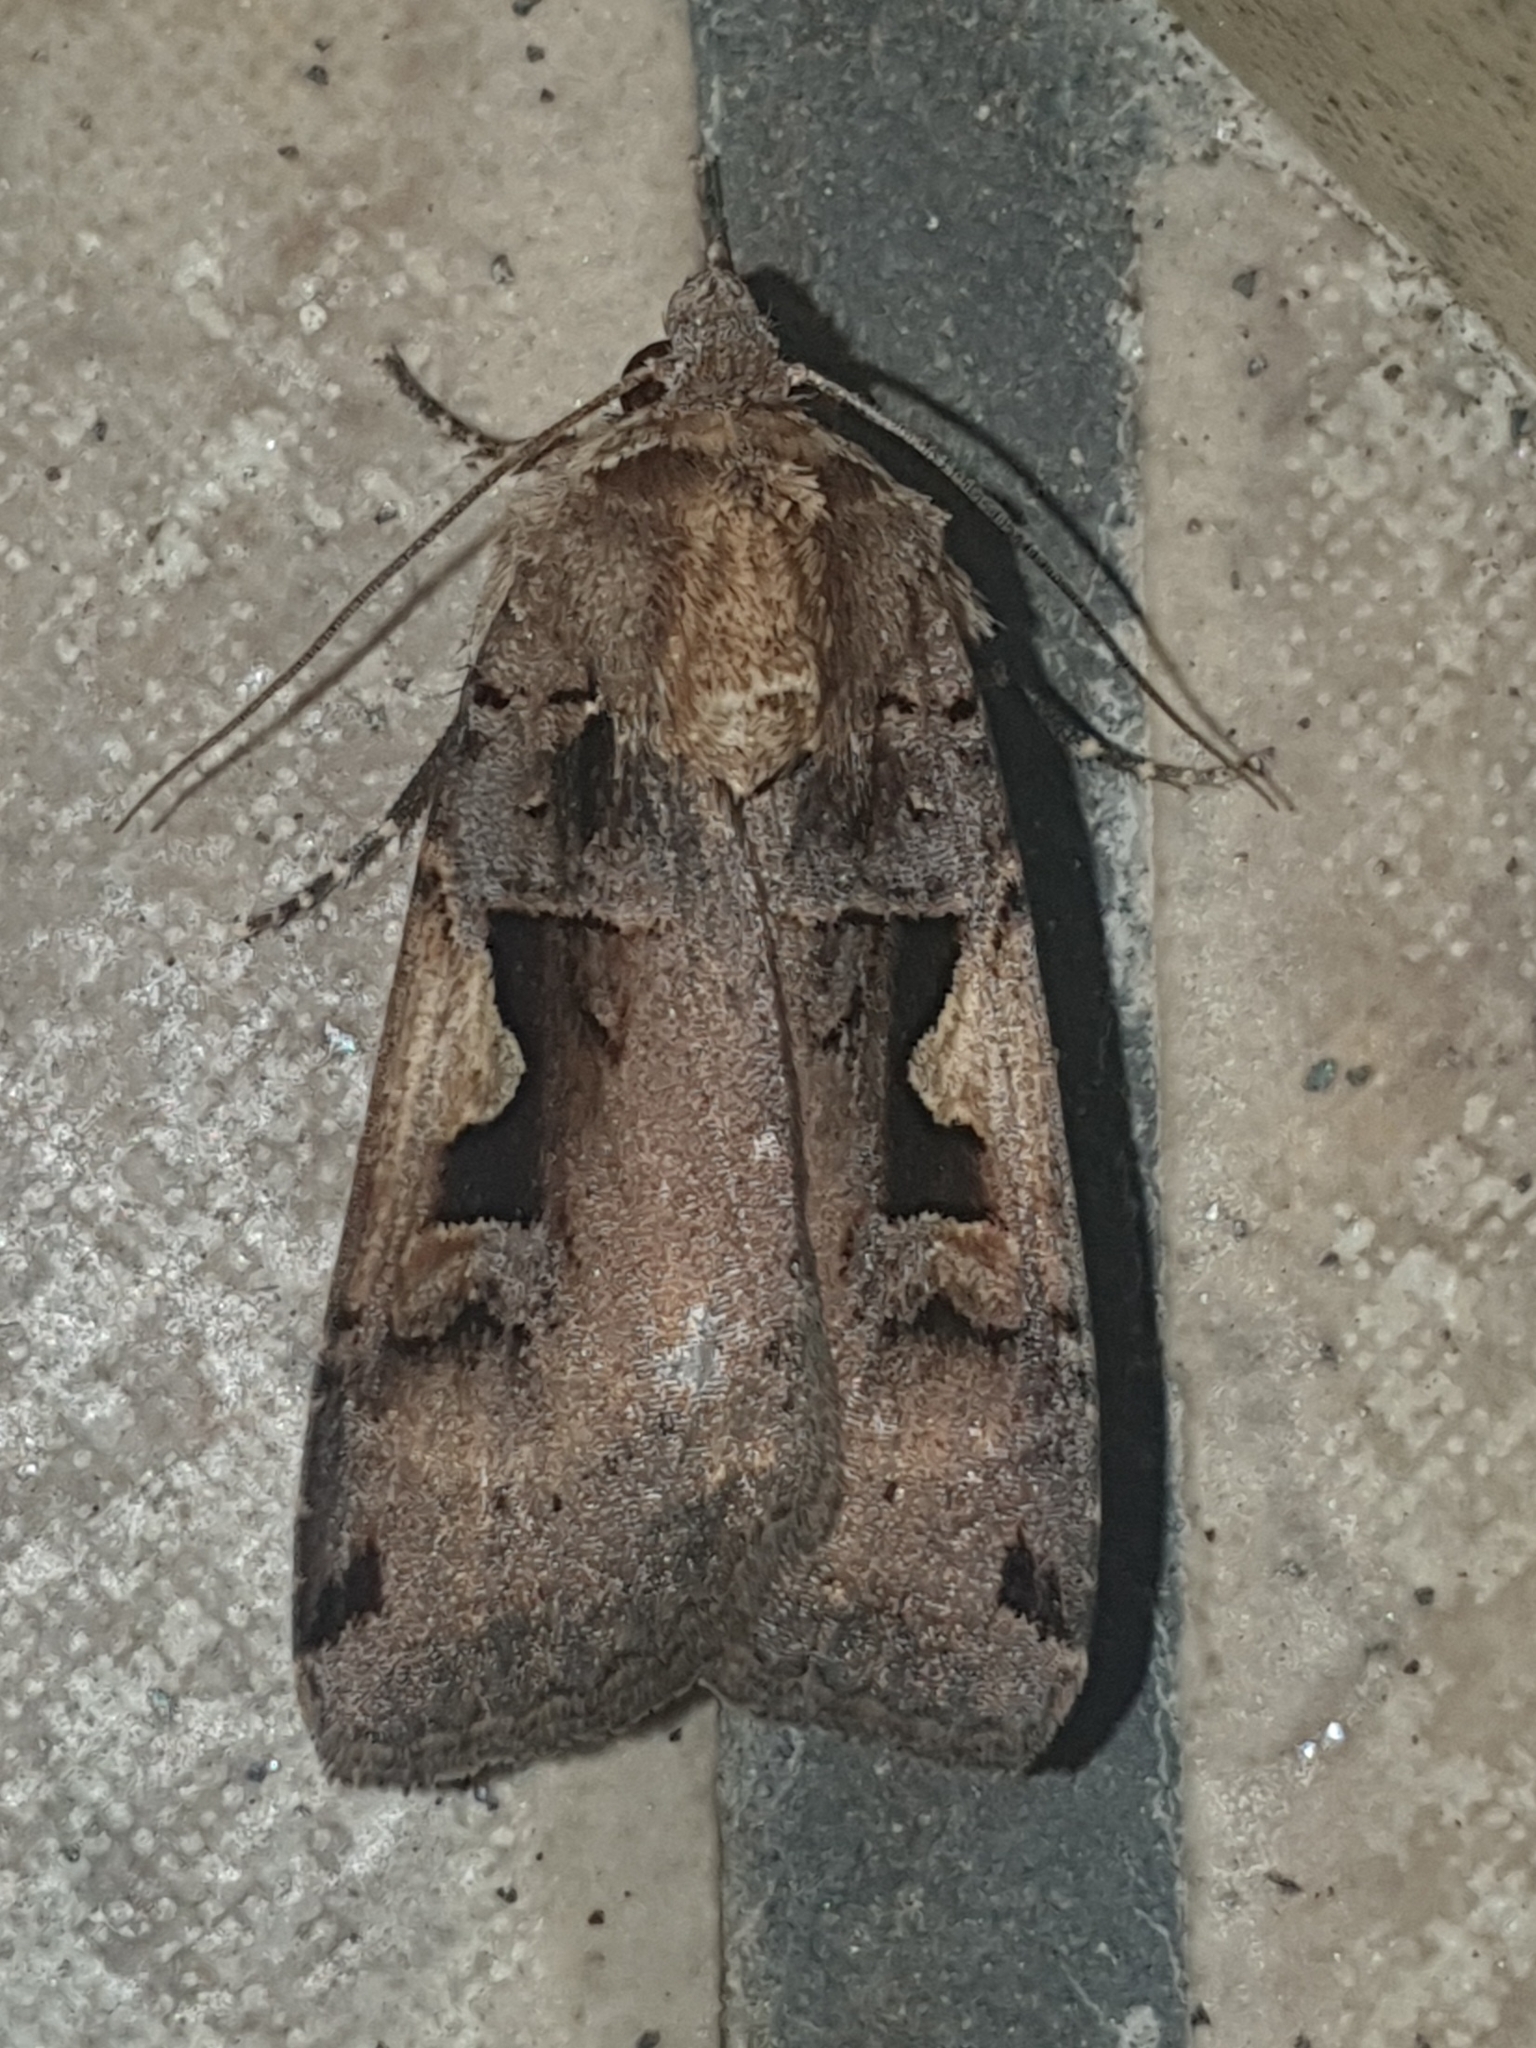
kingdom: Animalia
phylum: Arthropoda
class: Insecta
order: Lepidoptera
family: Noctuidae
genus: Xestia
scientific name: Xestia c-nigrum
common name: Setaceous hebrew character
